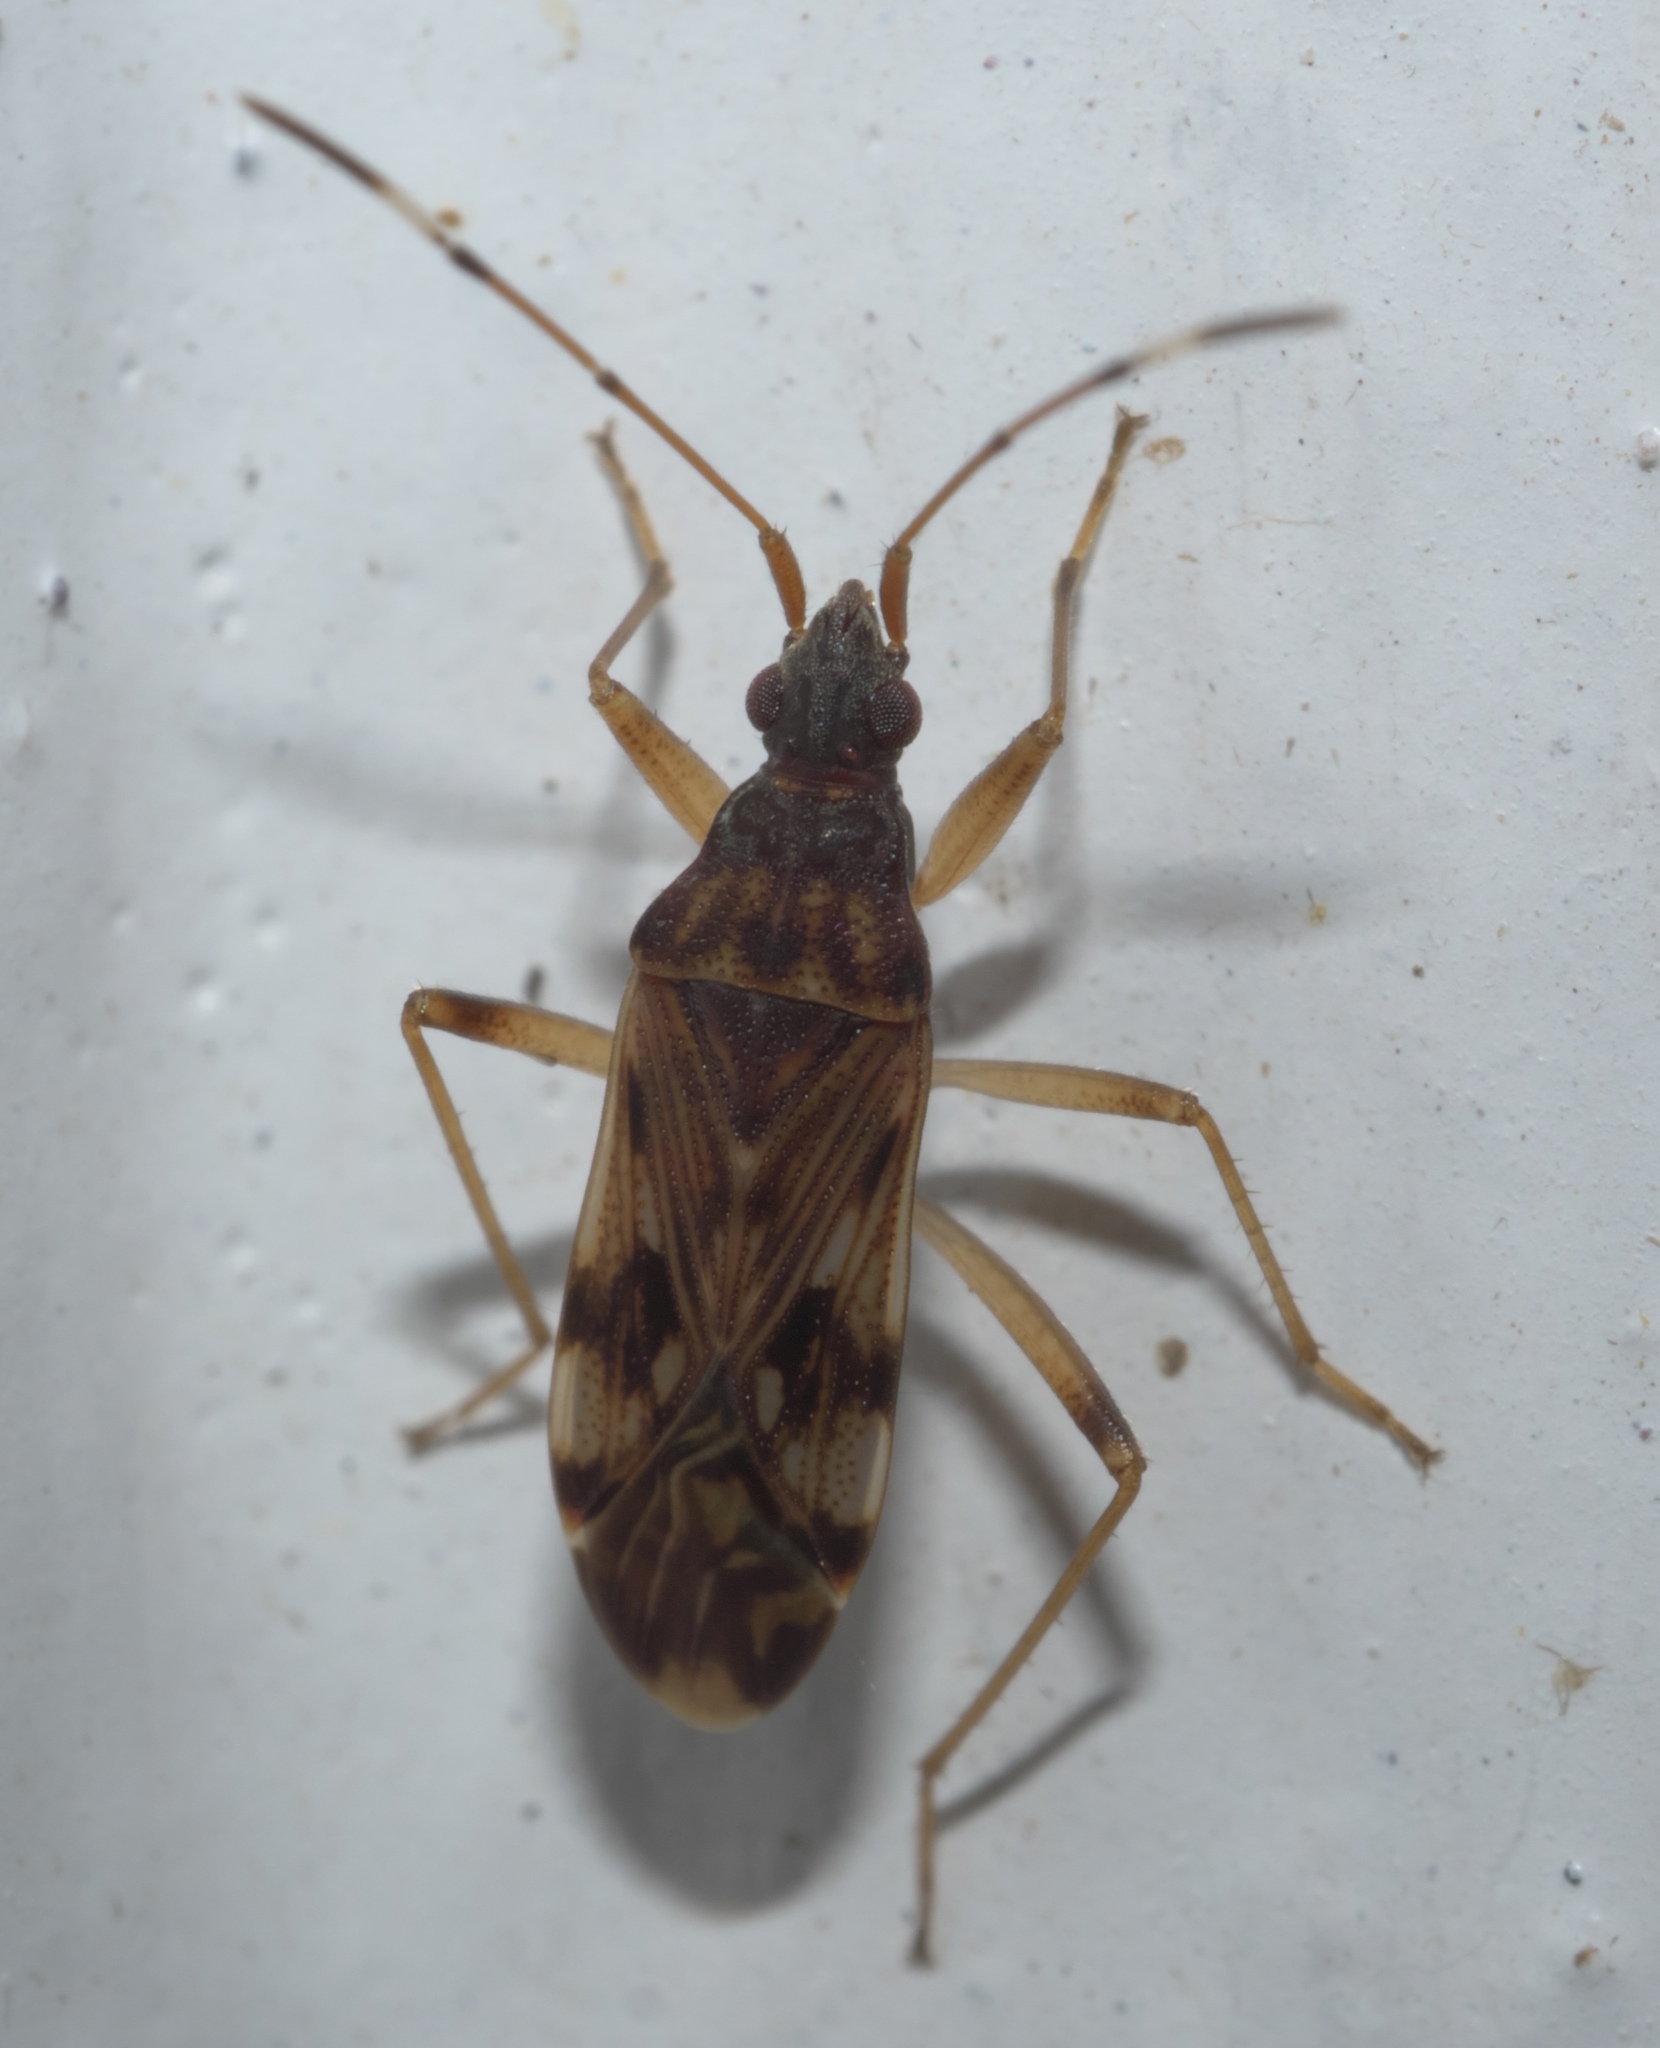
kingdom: Animalia
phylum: Arthropoda
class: Insecta
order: Hemiptera
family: Rhyparochromidae
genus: Ozophora
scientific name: Ozophora picturata
